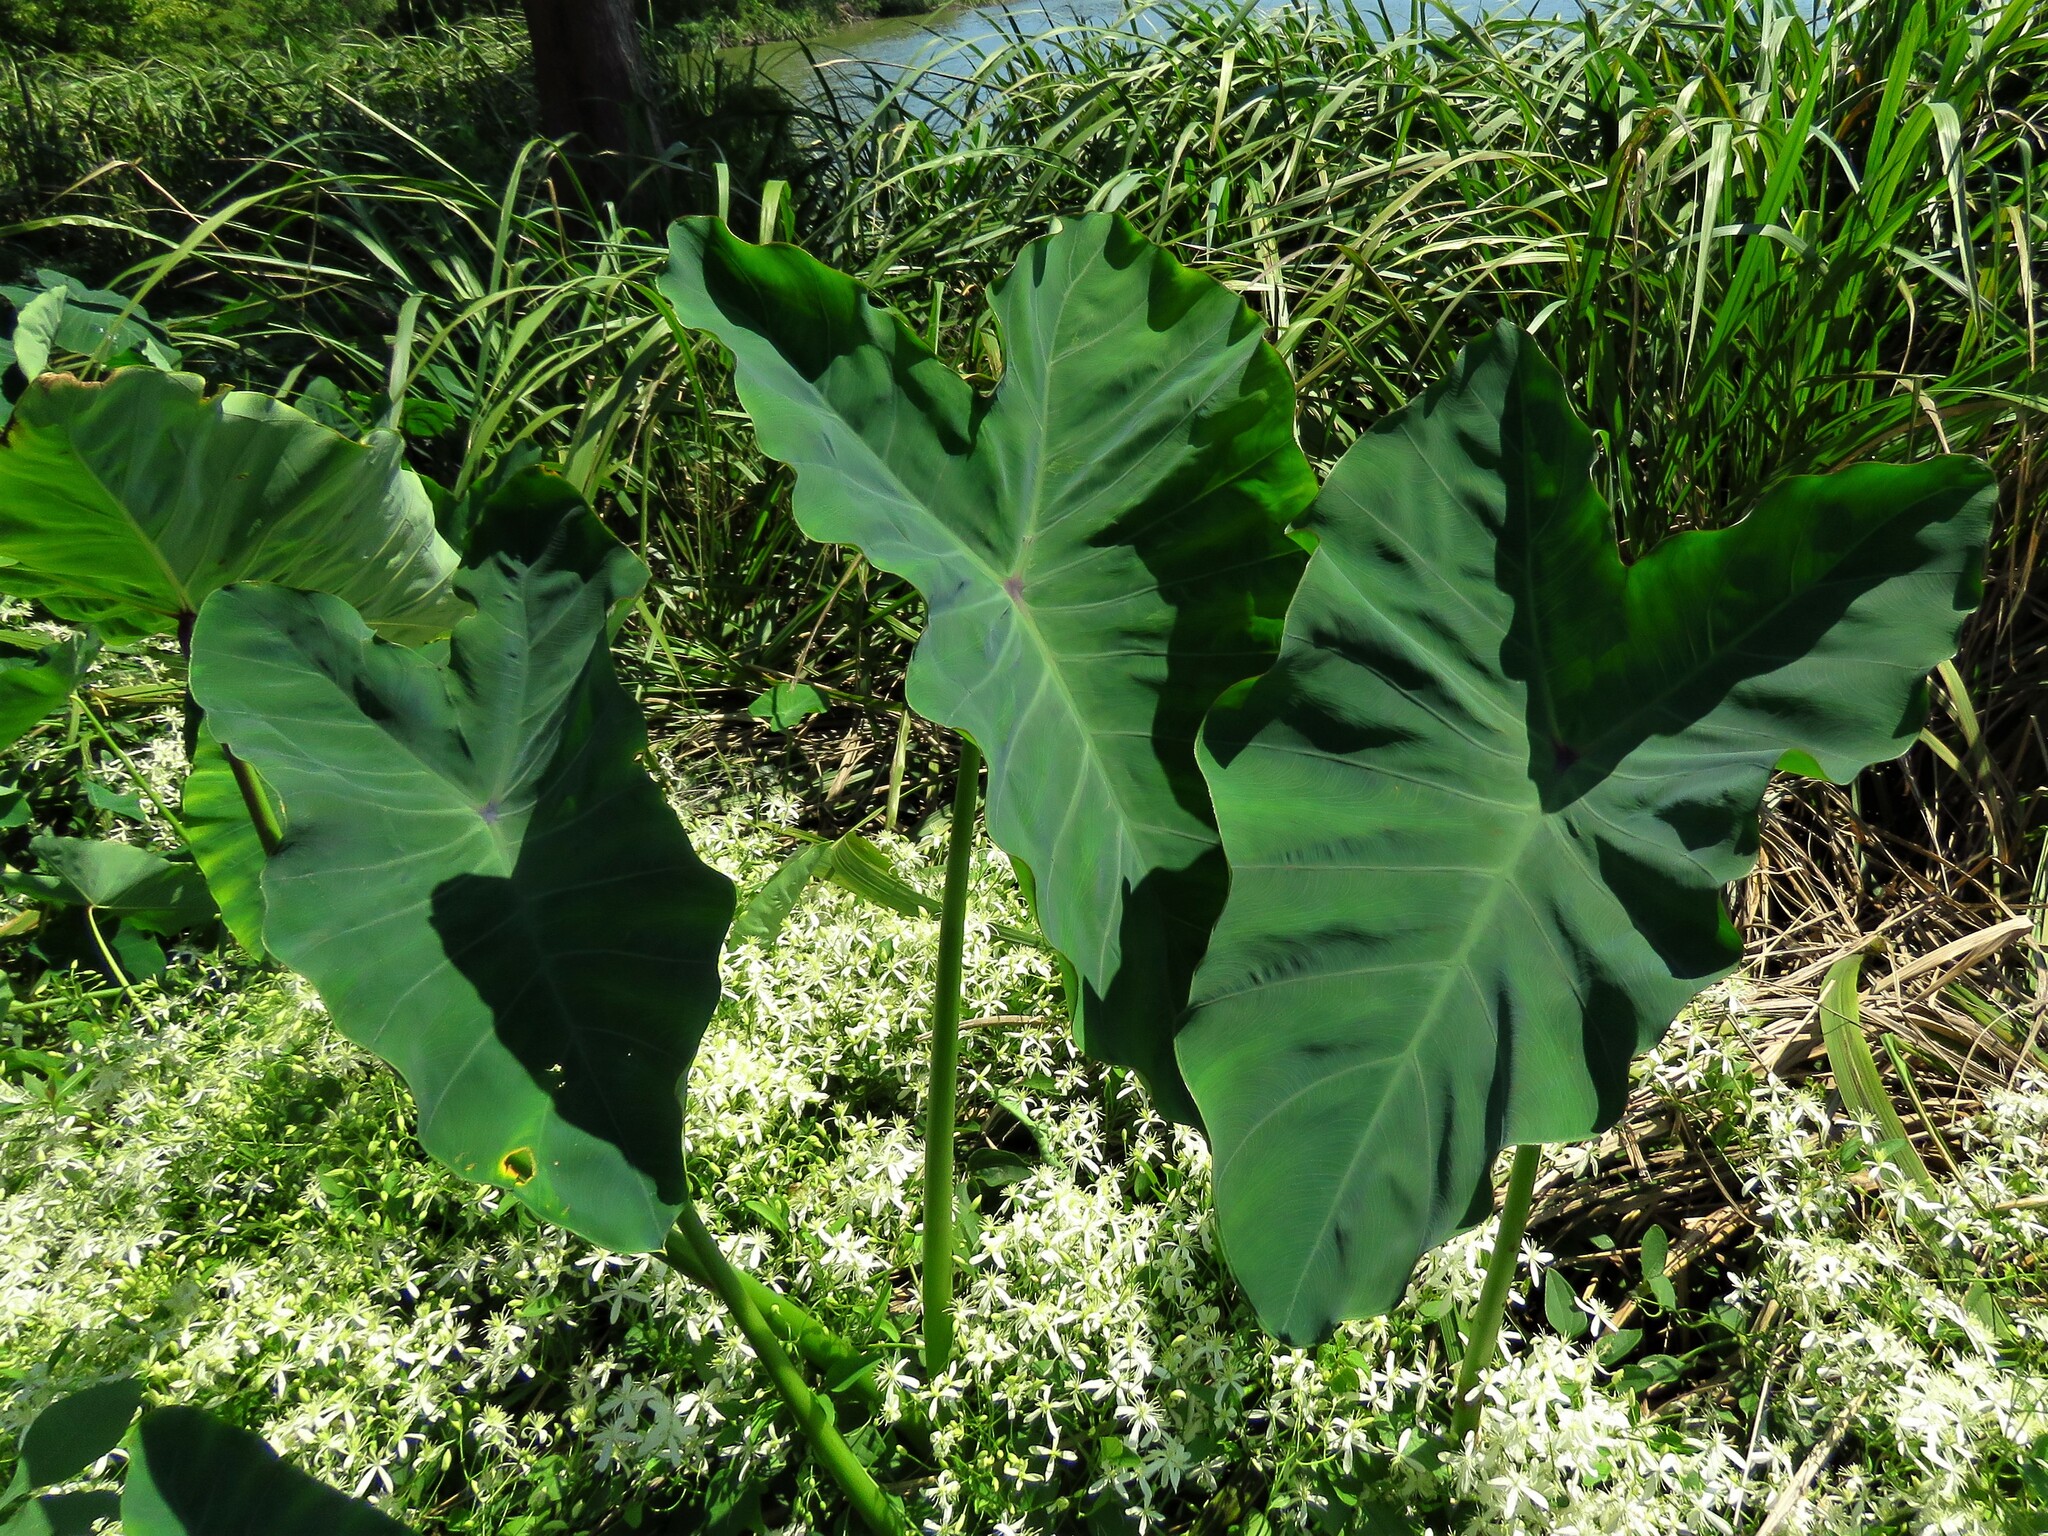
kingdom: Plantae
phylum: Tracheophyta
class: Liliopsida
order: Alismatales
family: Araceae
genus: Colocasia
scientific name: Colocasia esculenta
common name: Taro
